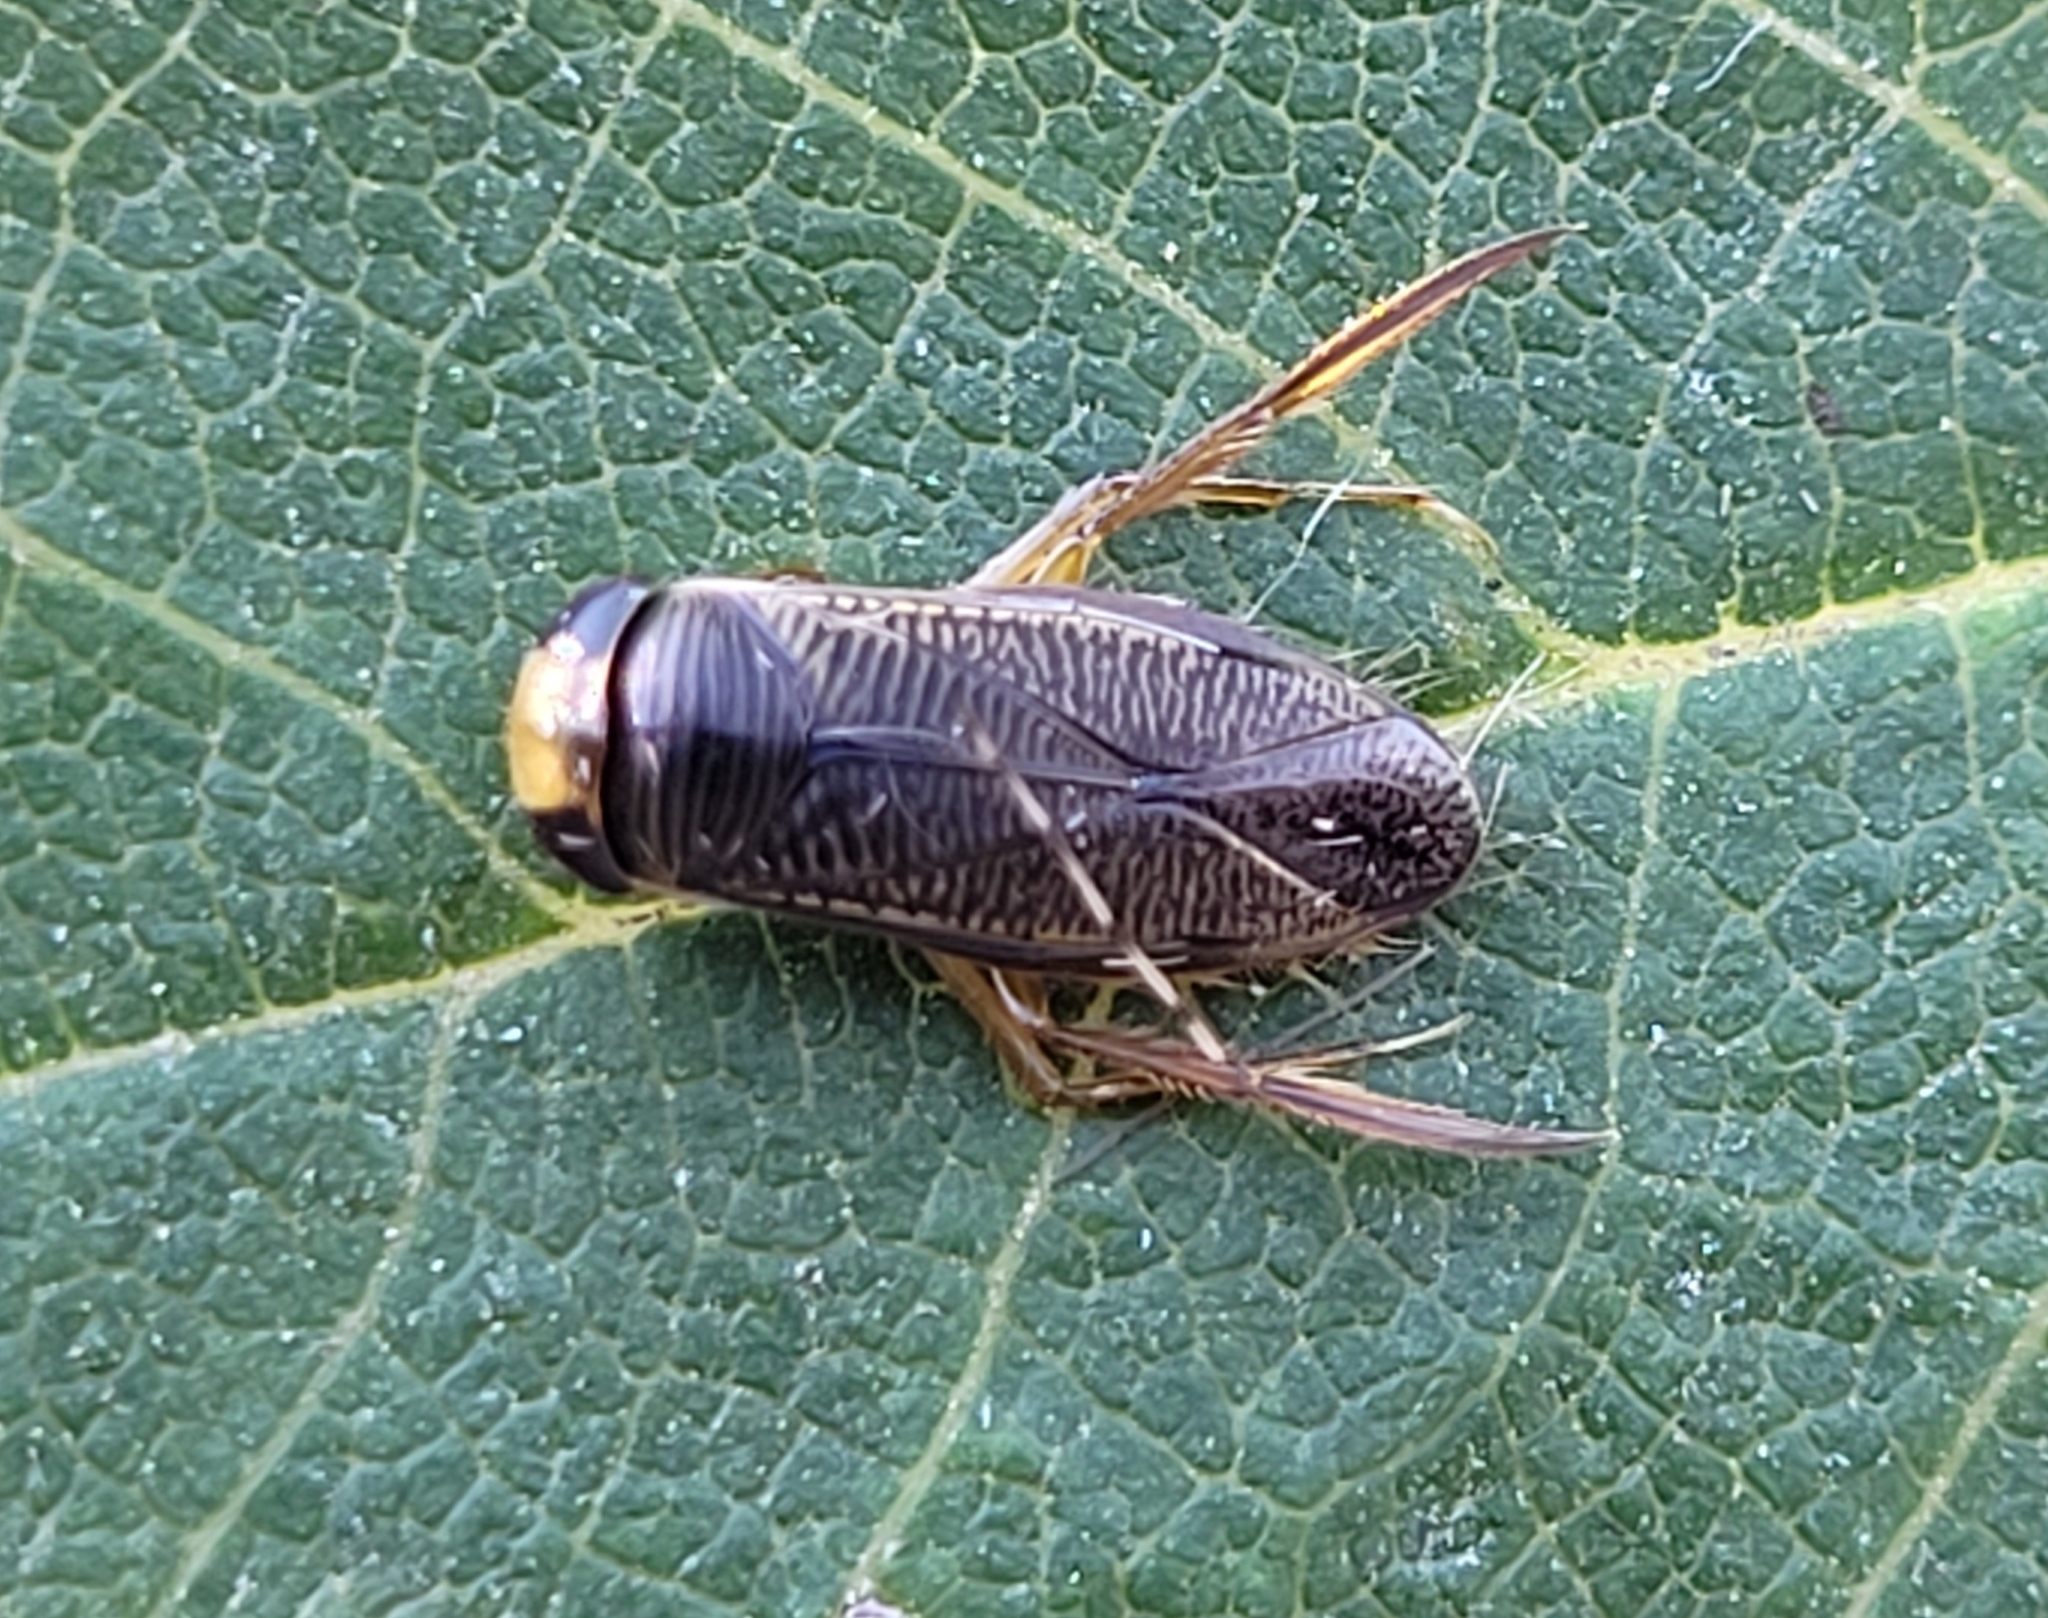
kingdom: Animalia
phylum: Arthropoda
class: Insecta
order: Hemiptera
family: Corixidae
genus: Callicorixa
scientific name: Callicorixa audeni
